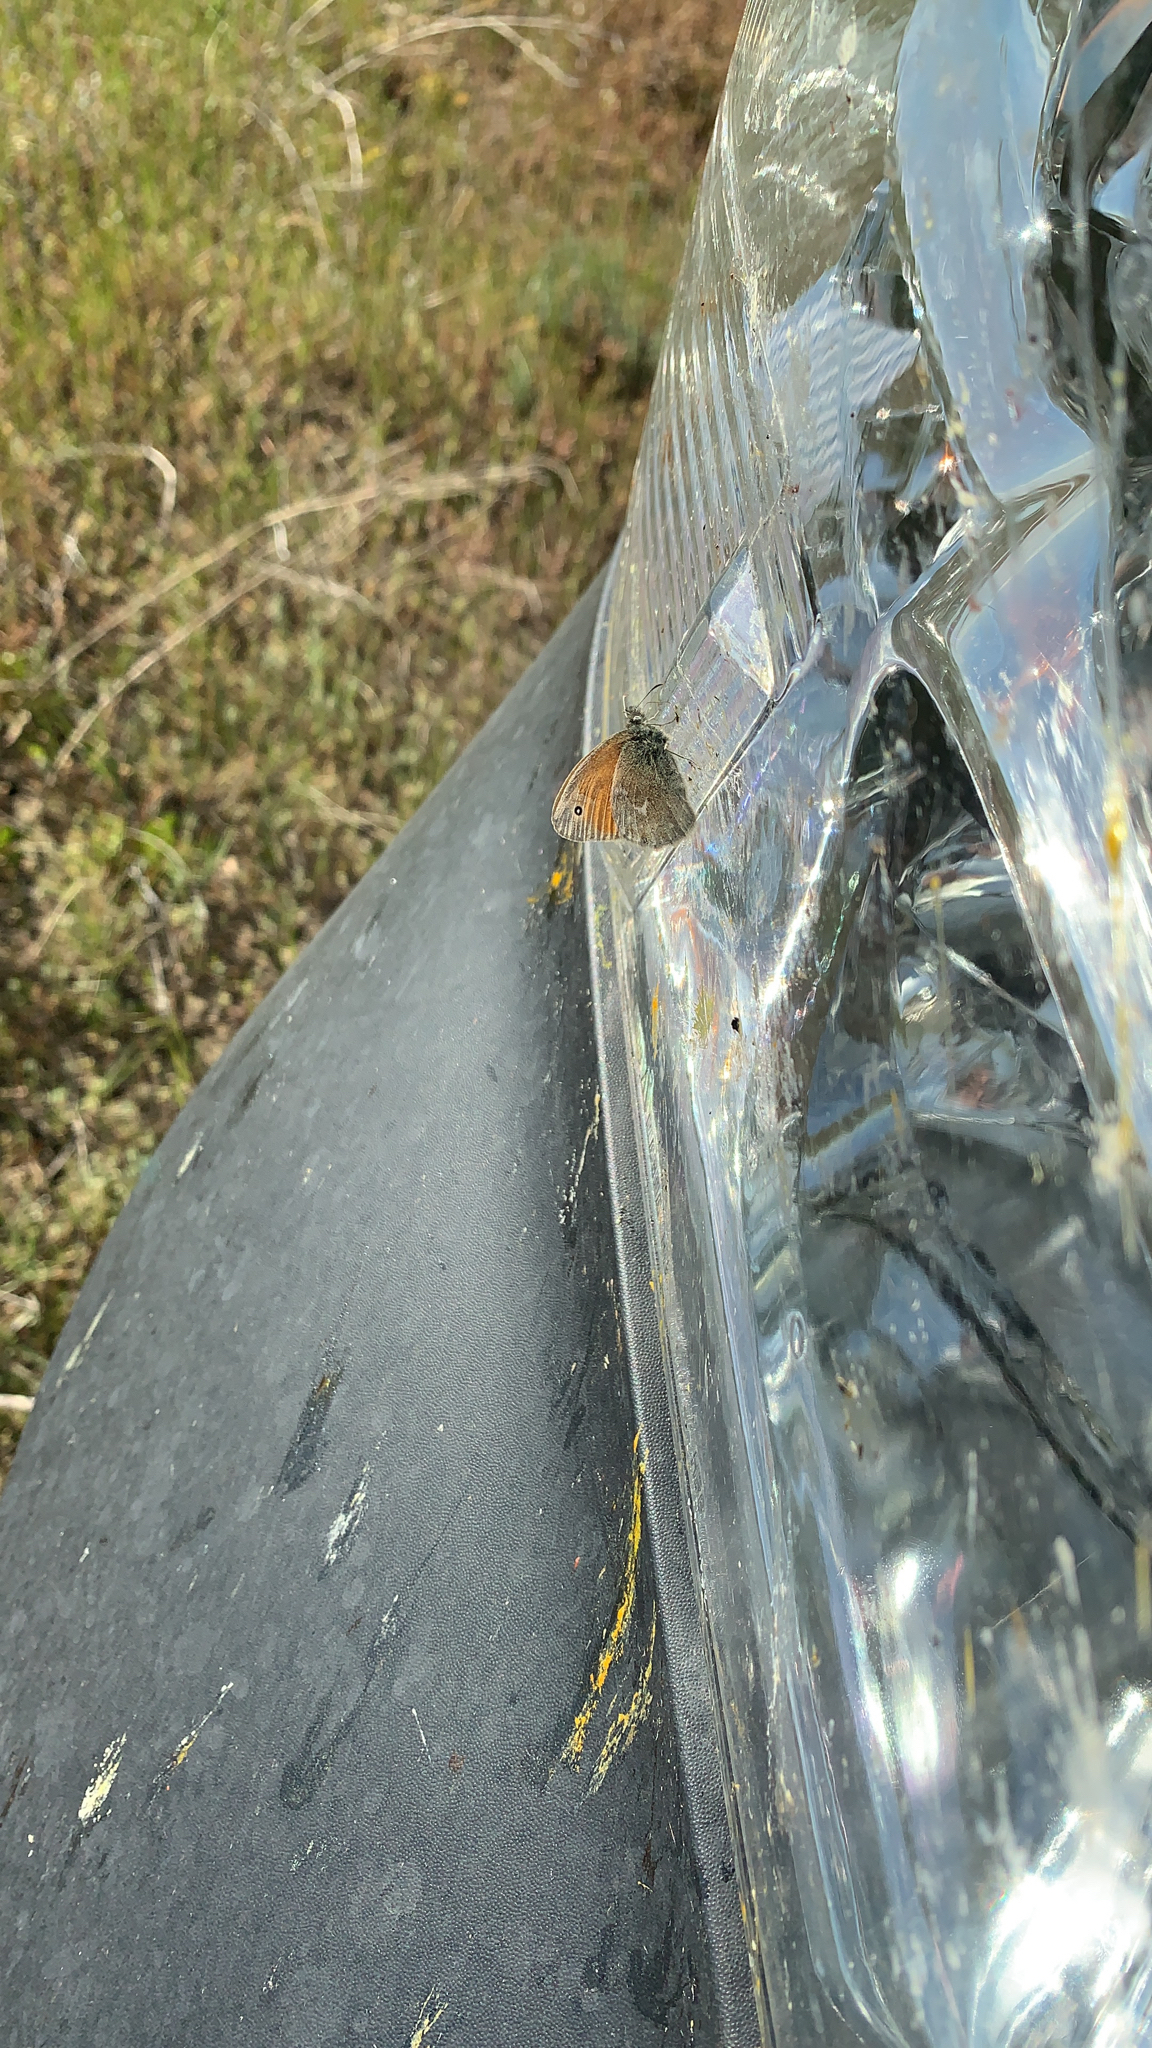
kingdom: Animalia
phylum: Arthropoda
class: Insecta
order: Lepidoptera
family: Nymphalidae
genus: Coenonympha
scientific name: Coenonympha california
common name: Common ringlet
